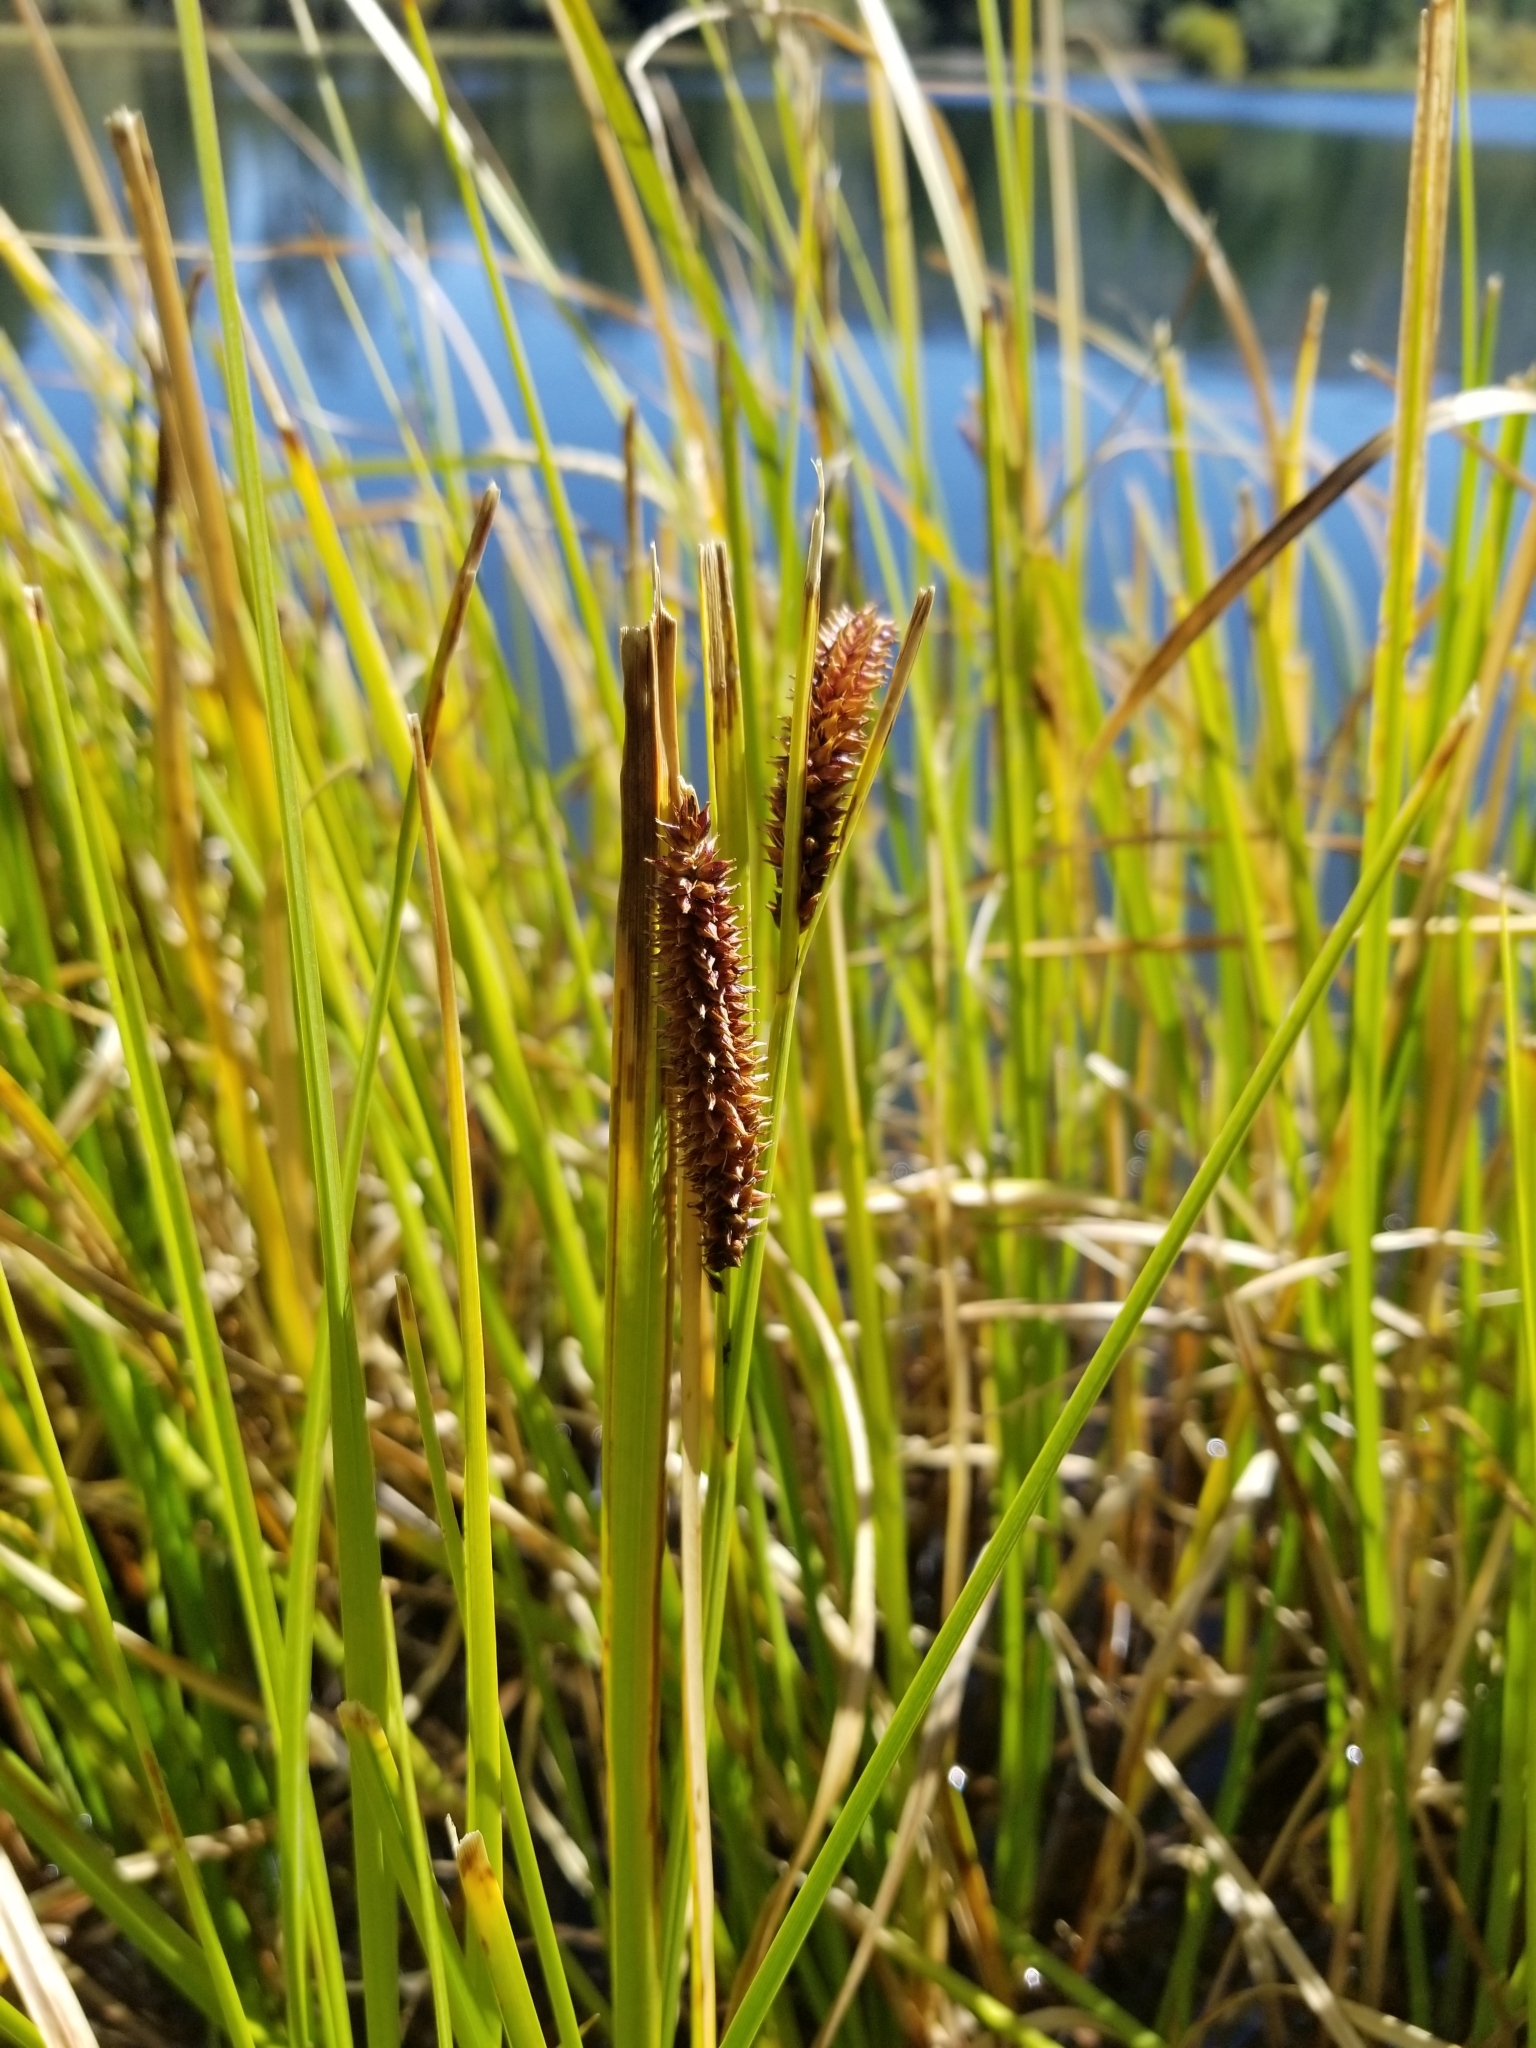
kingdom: Plantae
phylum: Tracheophyta
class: Liliopsida
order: Poales
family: Cyperaceae
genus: Carex
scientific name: Carex aquatilis
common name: Water sedge
